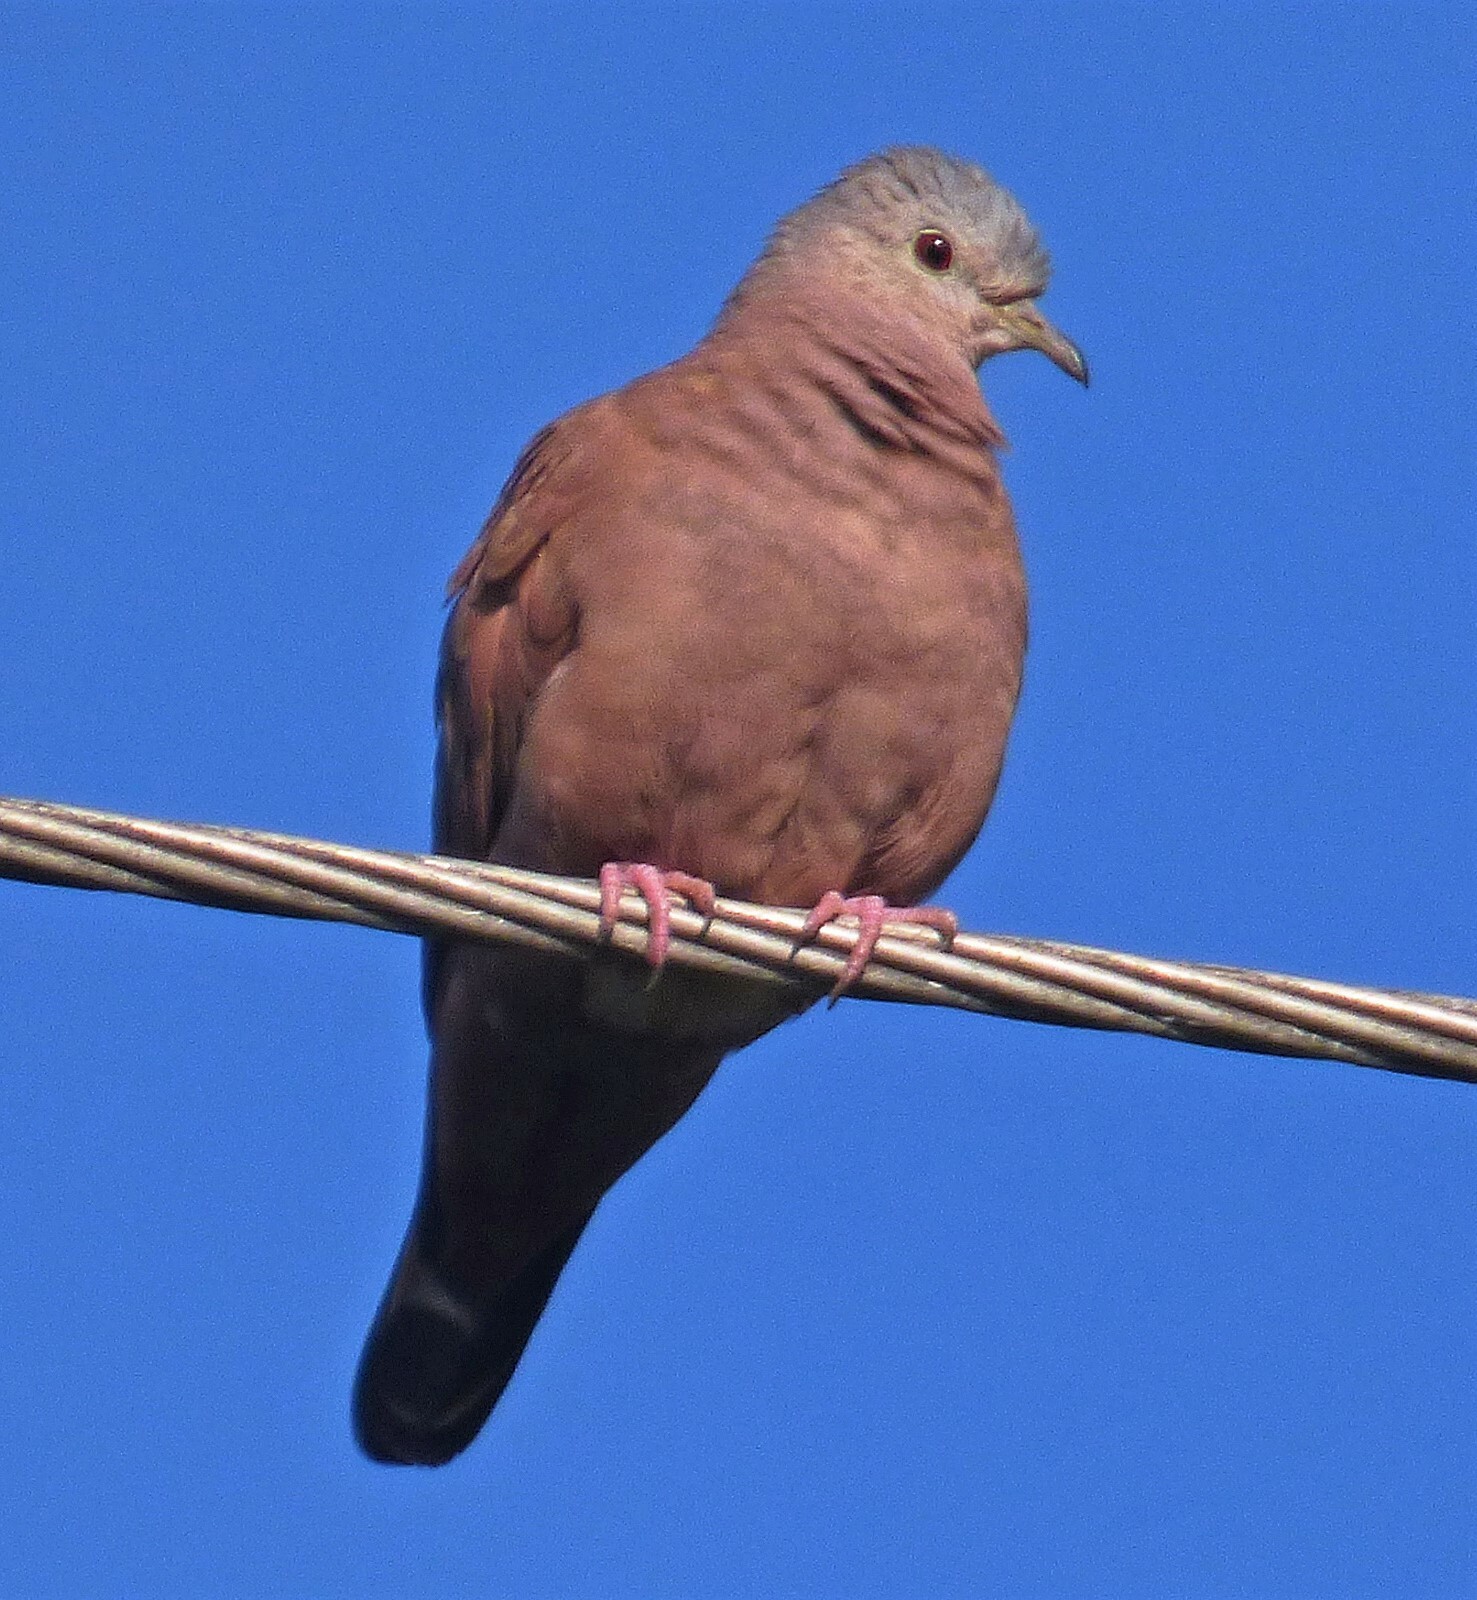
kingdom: Animalia
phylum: Chordata
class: Aves
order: Columbiformes
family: Columbidae
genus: Columbina
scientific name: Columbina talpacoti
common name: Ruddy ground dove
